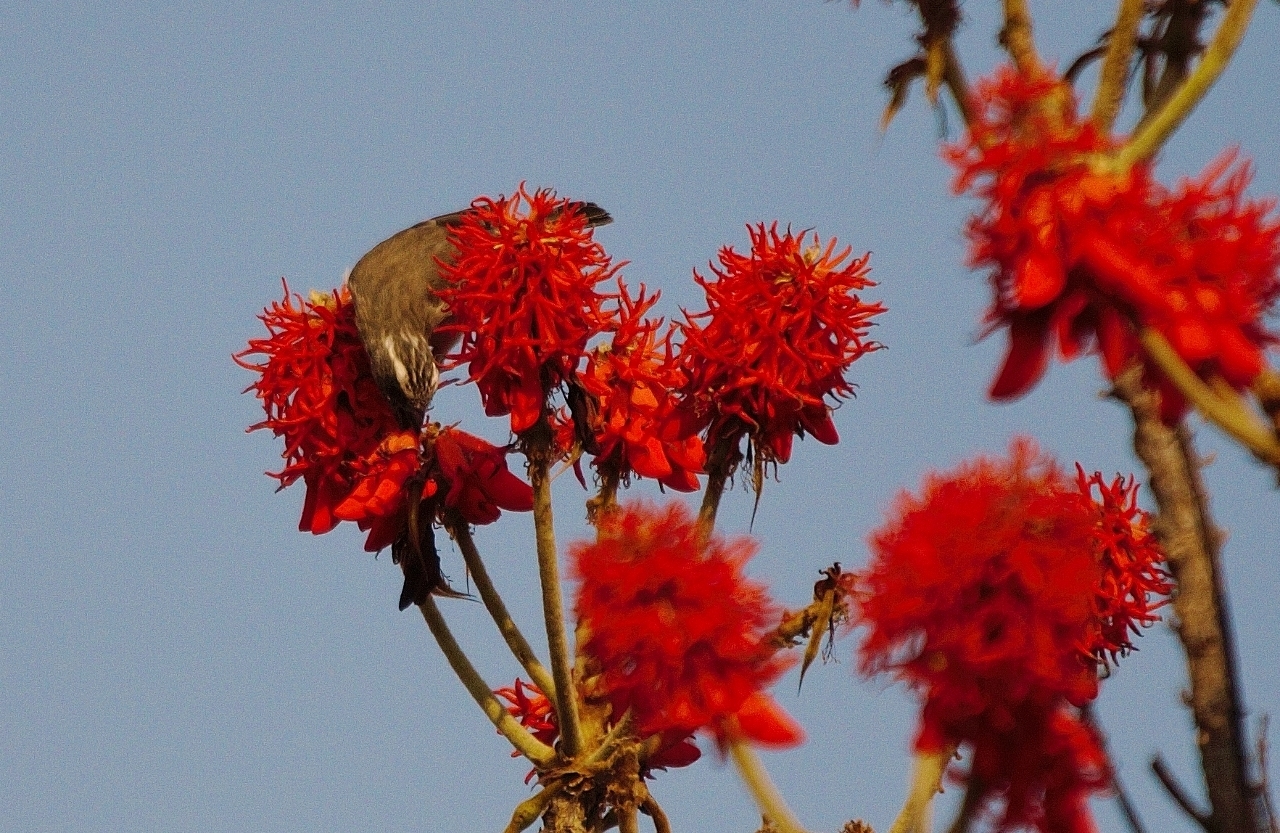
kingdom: Animalia
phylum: Chordata
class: Aves
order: Passeriformes
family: Fringillidae
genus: Crithagra
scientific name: Crithagra gularis
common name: Streaky-headed seedeater
